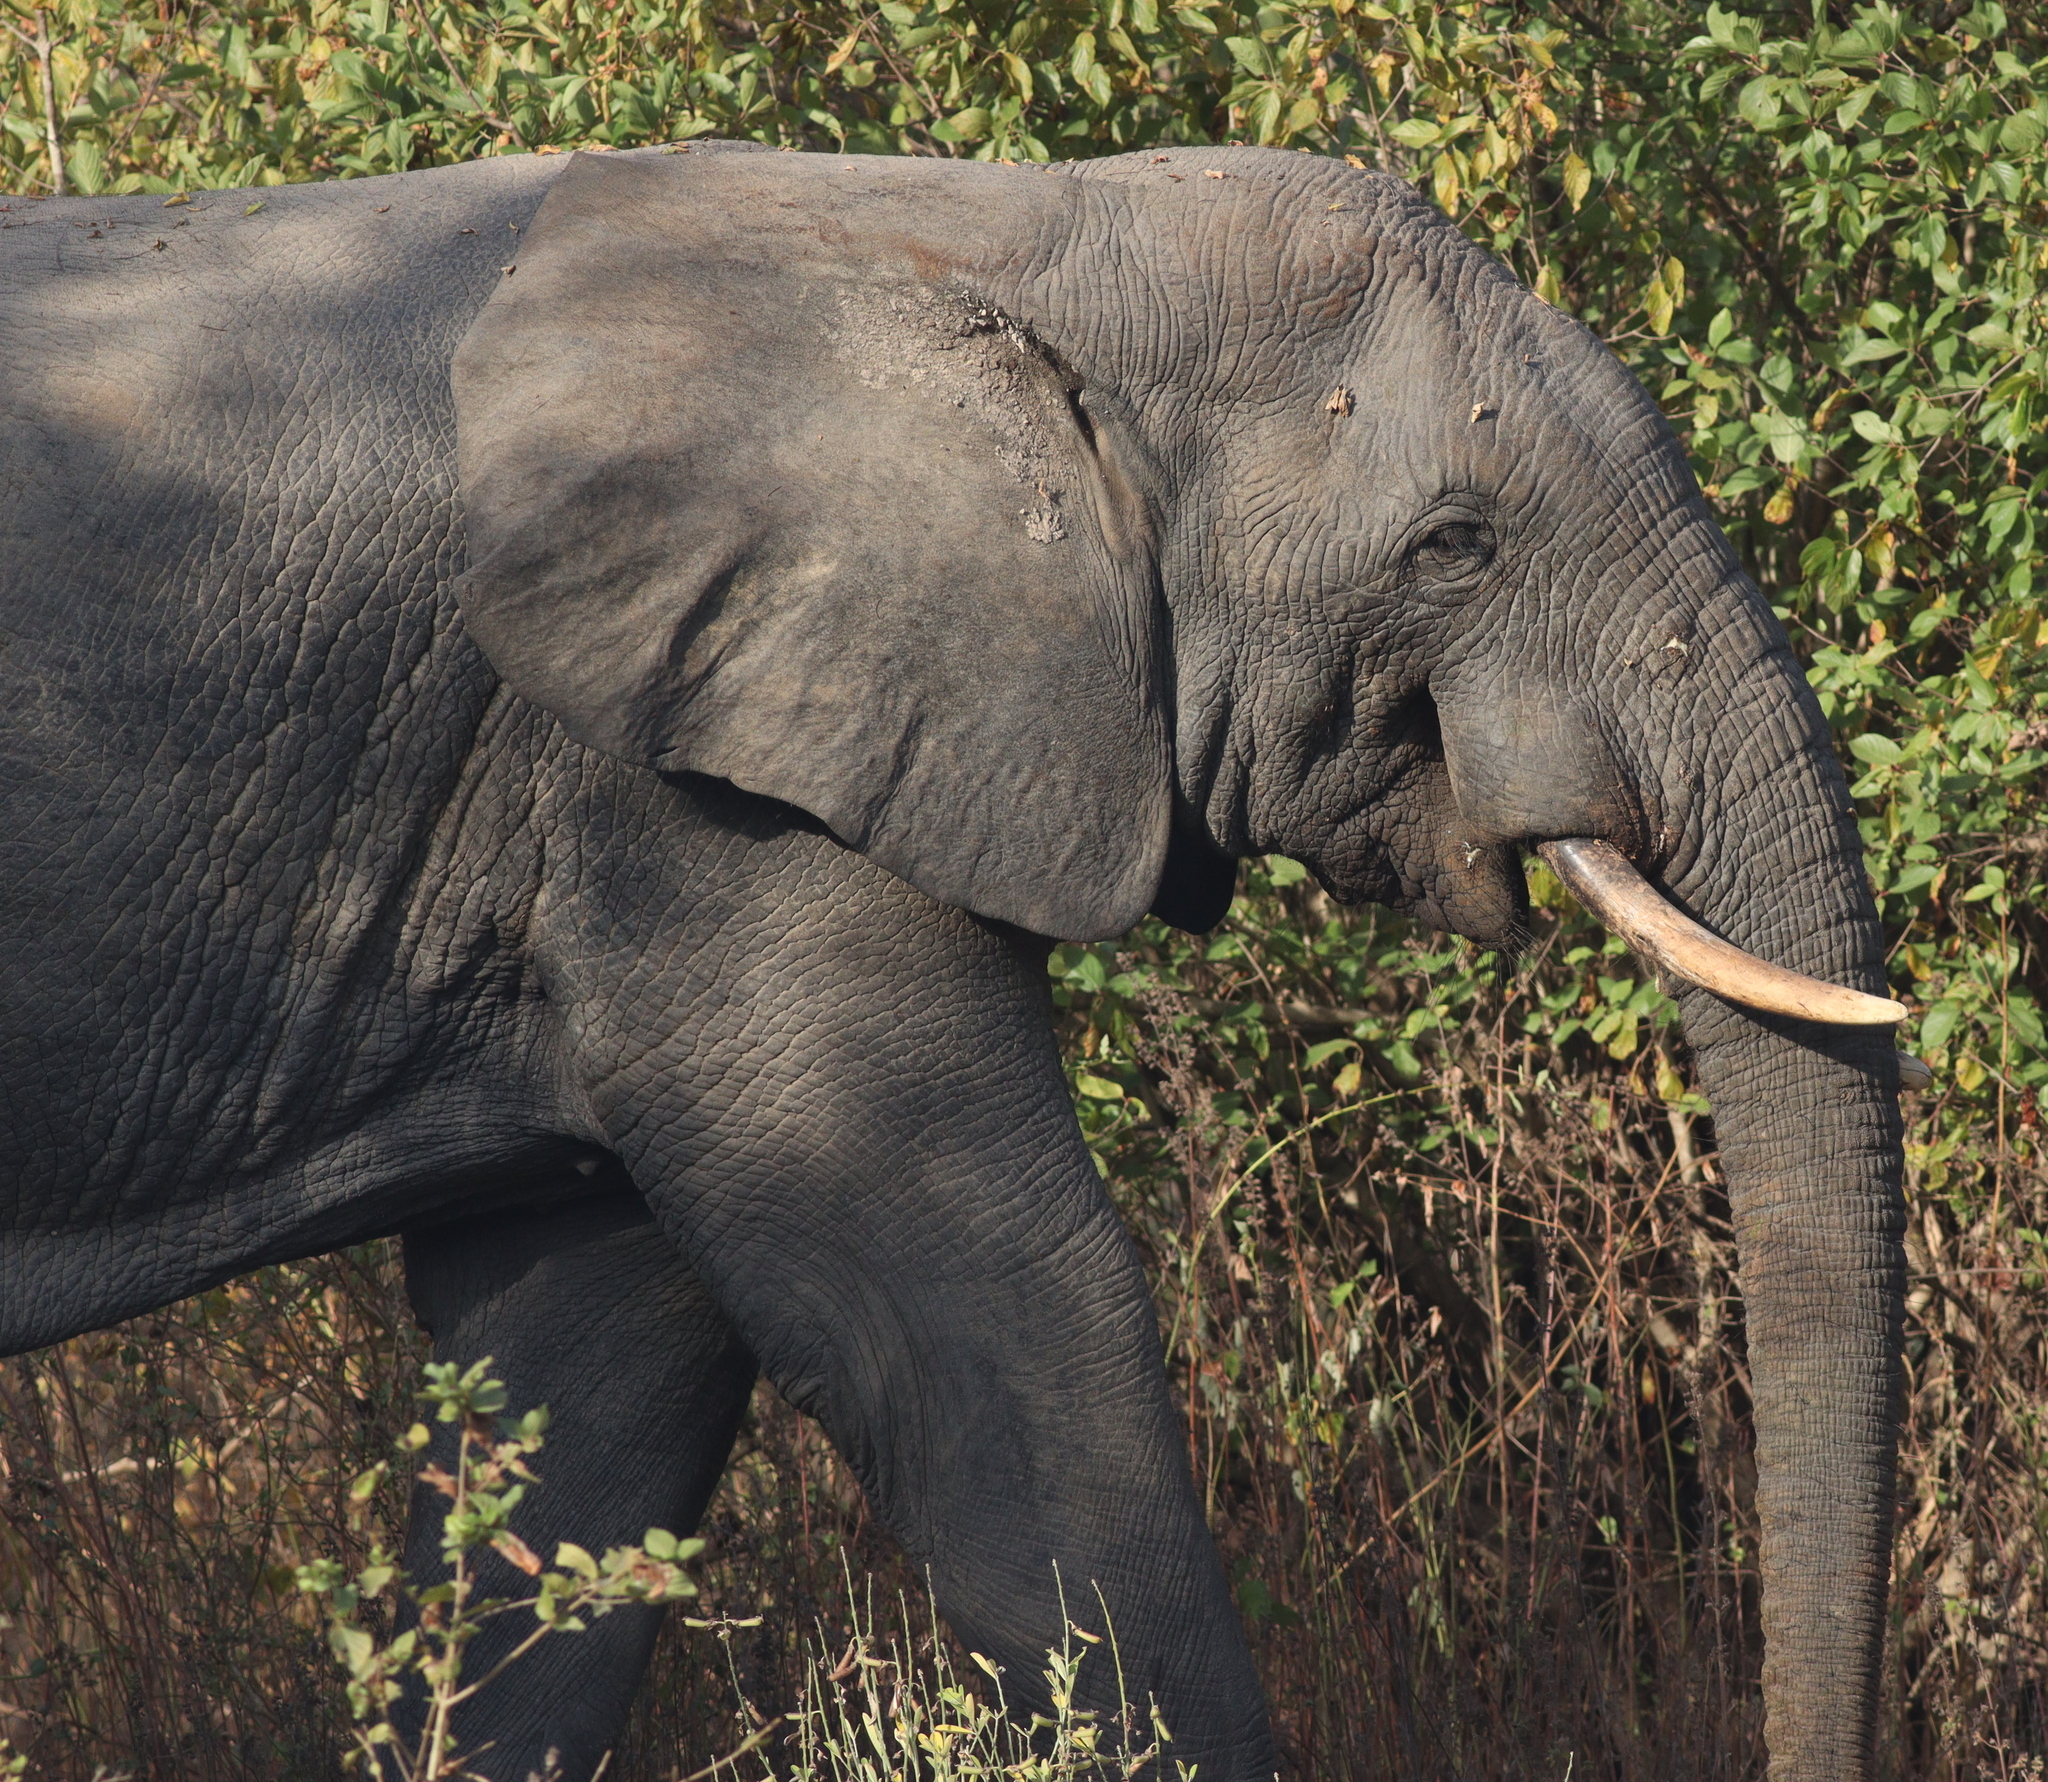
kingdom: Animalia
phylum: Chordata
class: Mammalia
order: Proboscidea
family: Elephantidae
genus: Loxodonta
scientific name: Loxodonta africana
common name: African elephant
